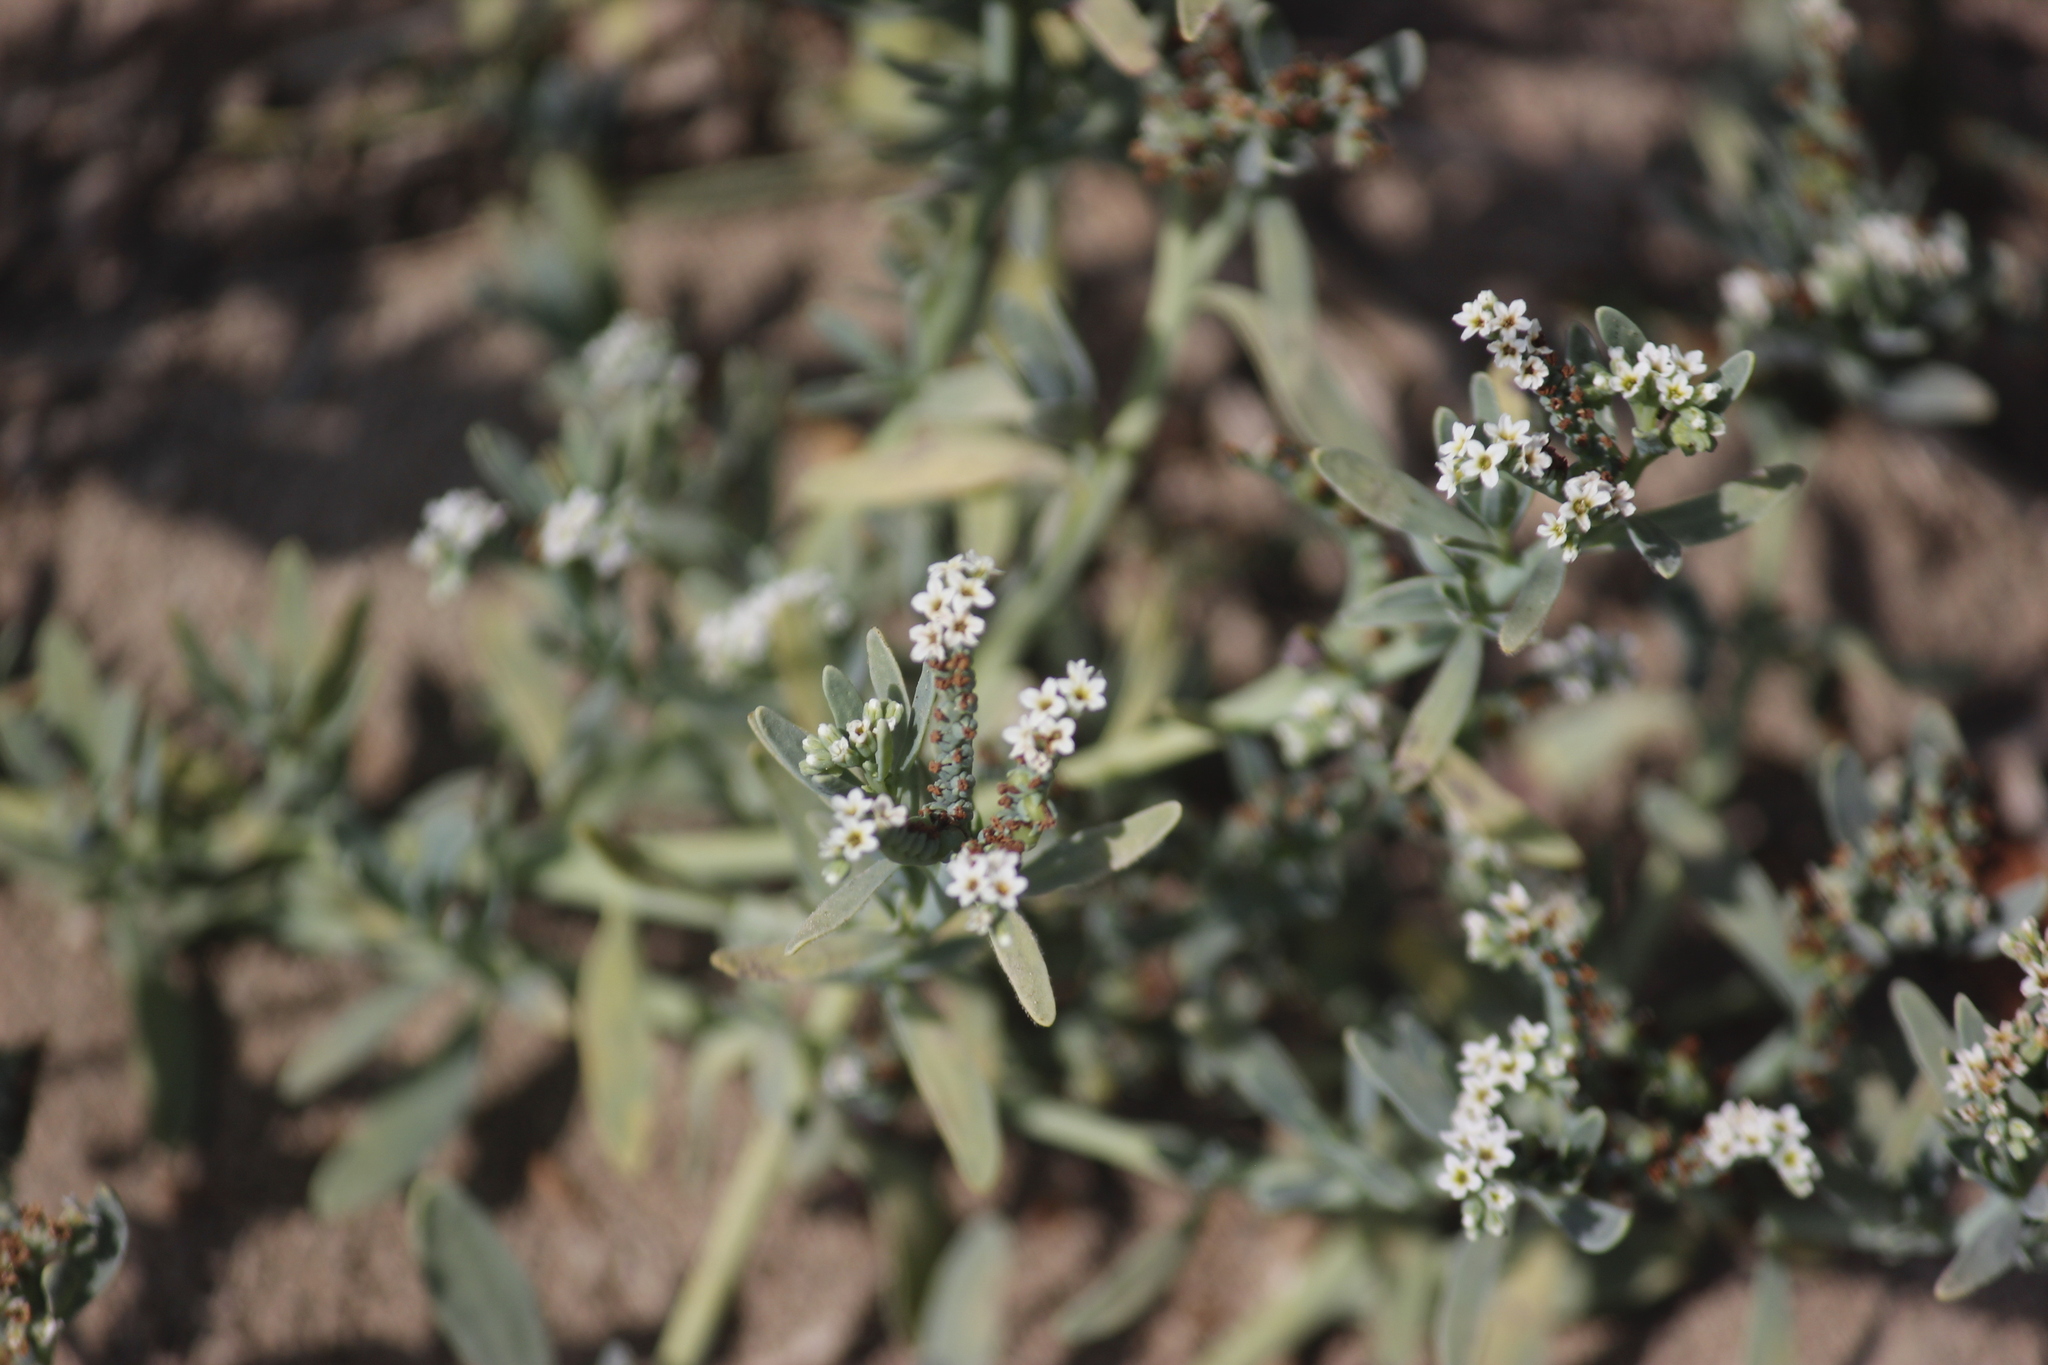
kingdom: Plantae
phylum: Tracheophyta
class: Magnoliopsida
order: Boraginales
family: Heliotropiaceae
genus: Heliotropium
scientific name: Heliotropium curassavicum
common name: Seaside heliotrope
